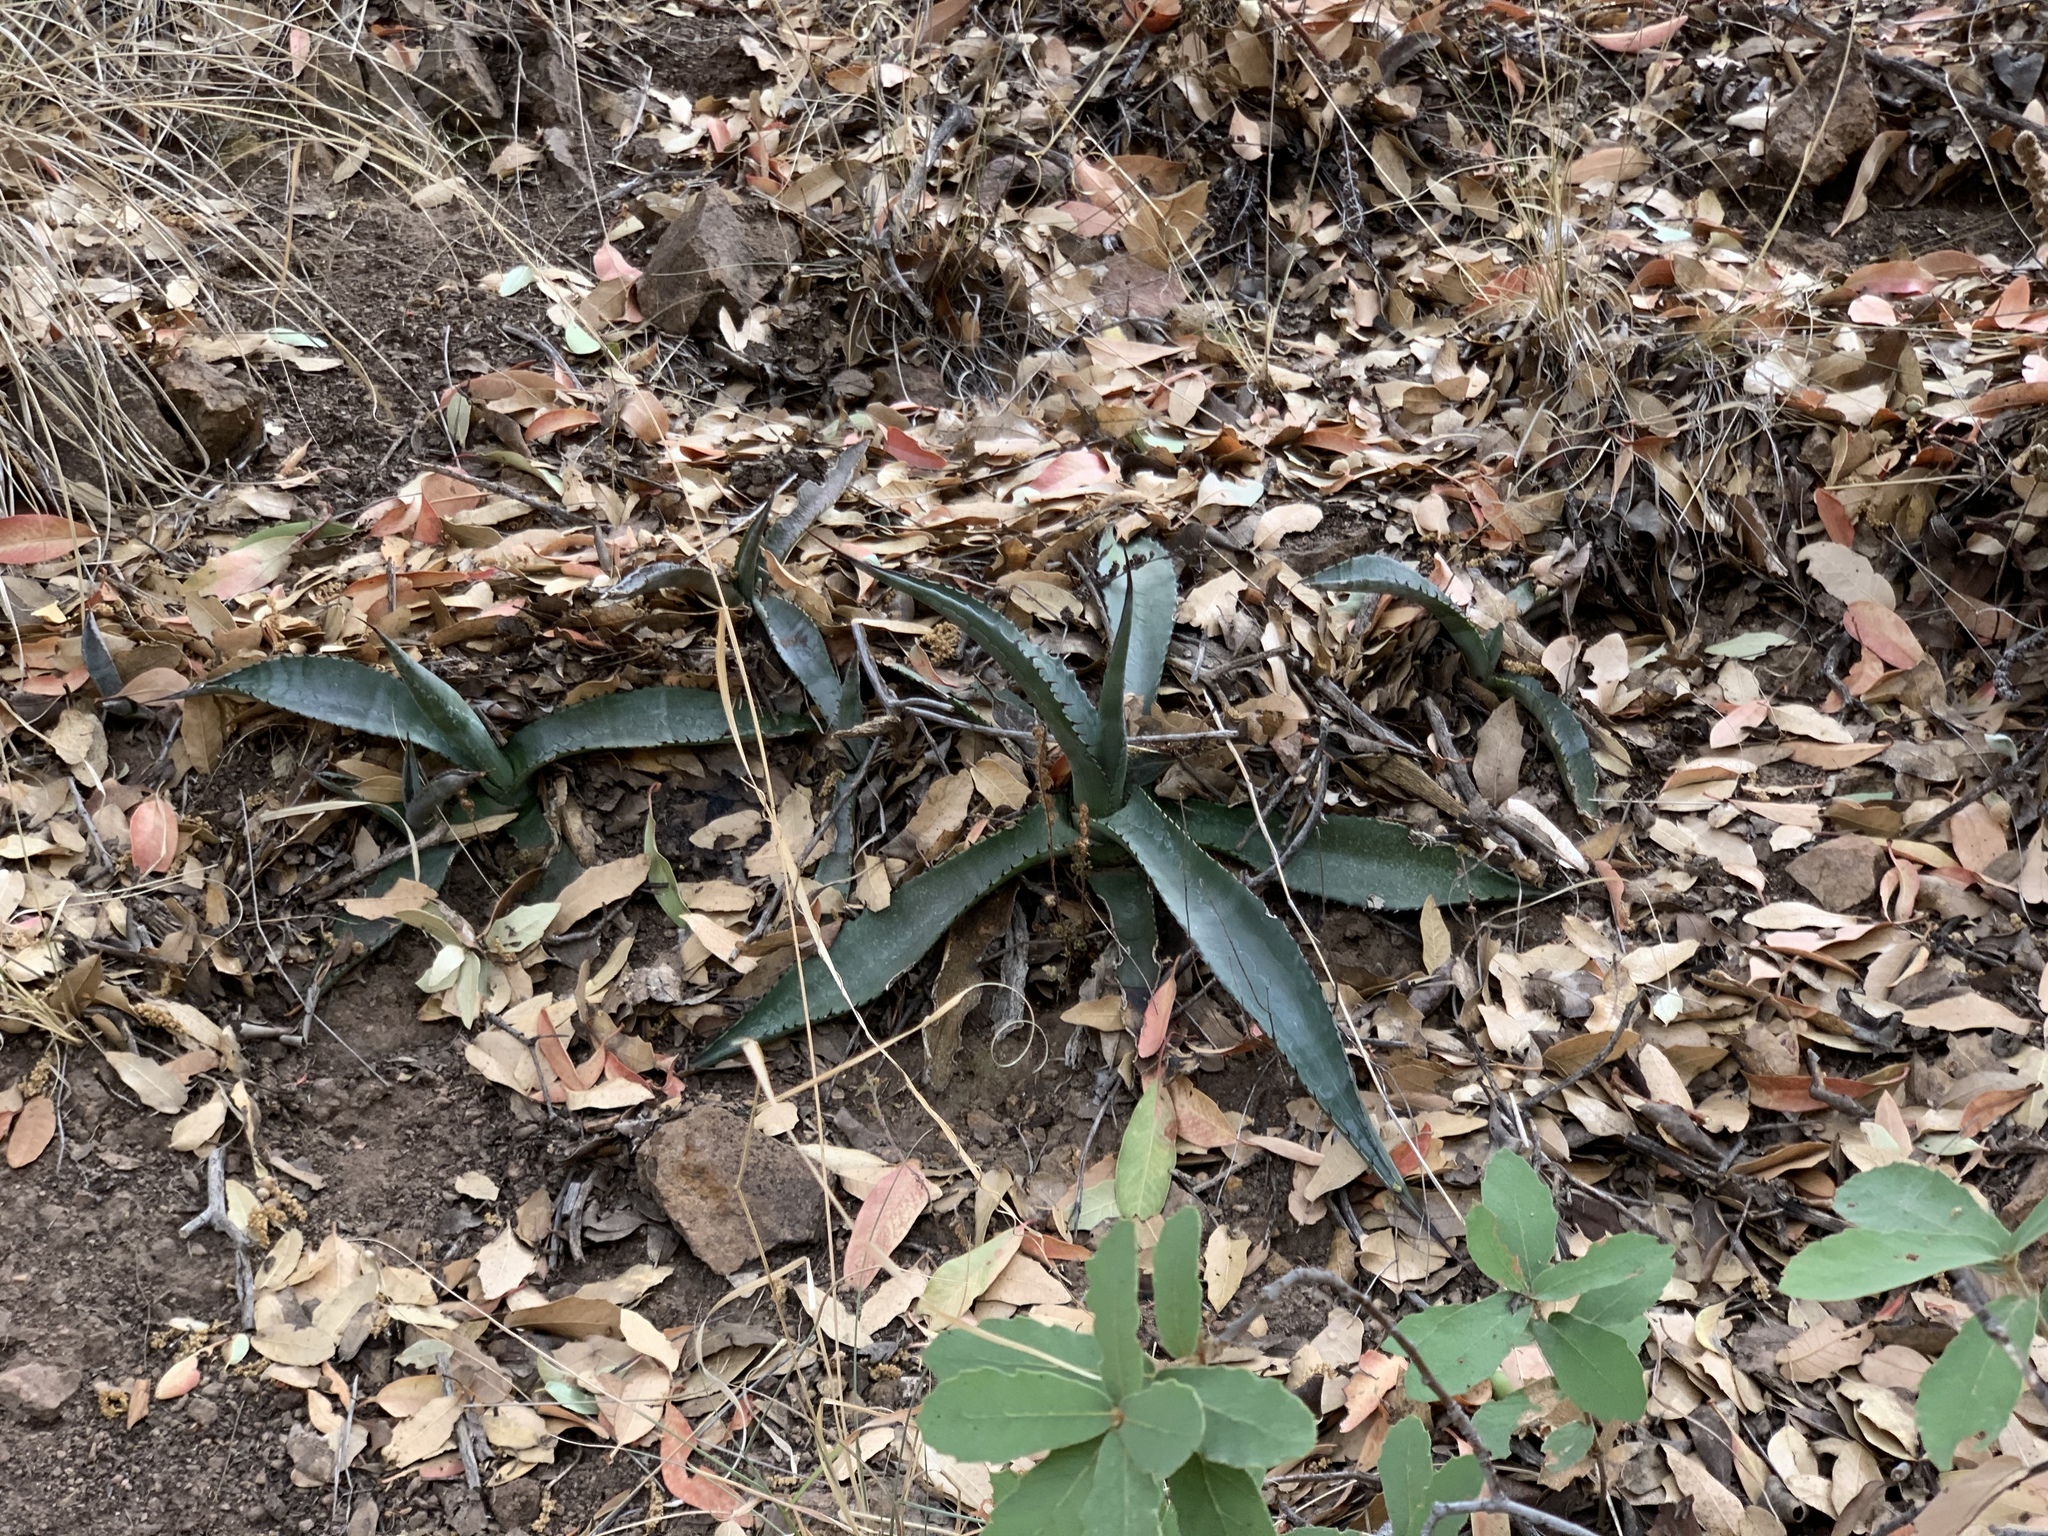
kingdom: Plantae
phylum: Tracheophyta
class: Liliopsida
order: Asparagales
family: Asparagaceae
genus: Agave
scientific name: Agave palmeri
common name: Palmer agave
